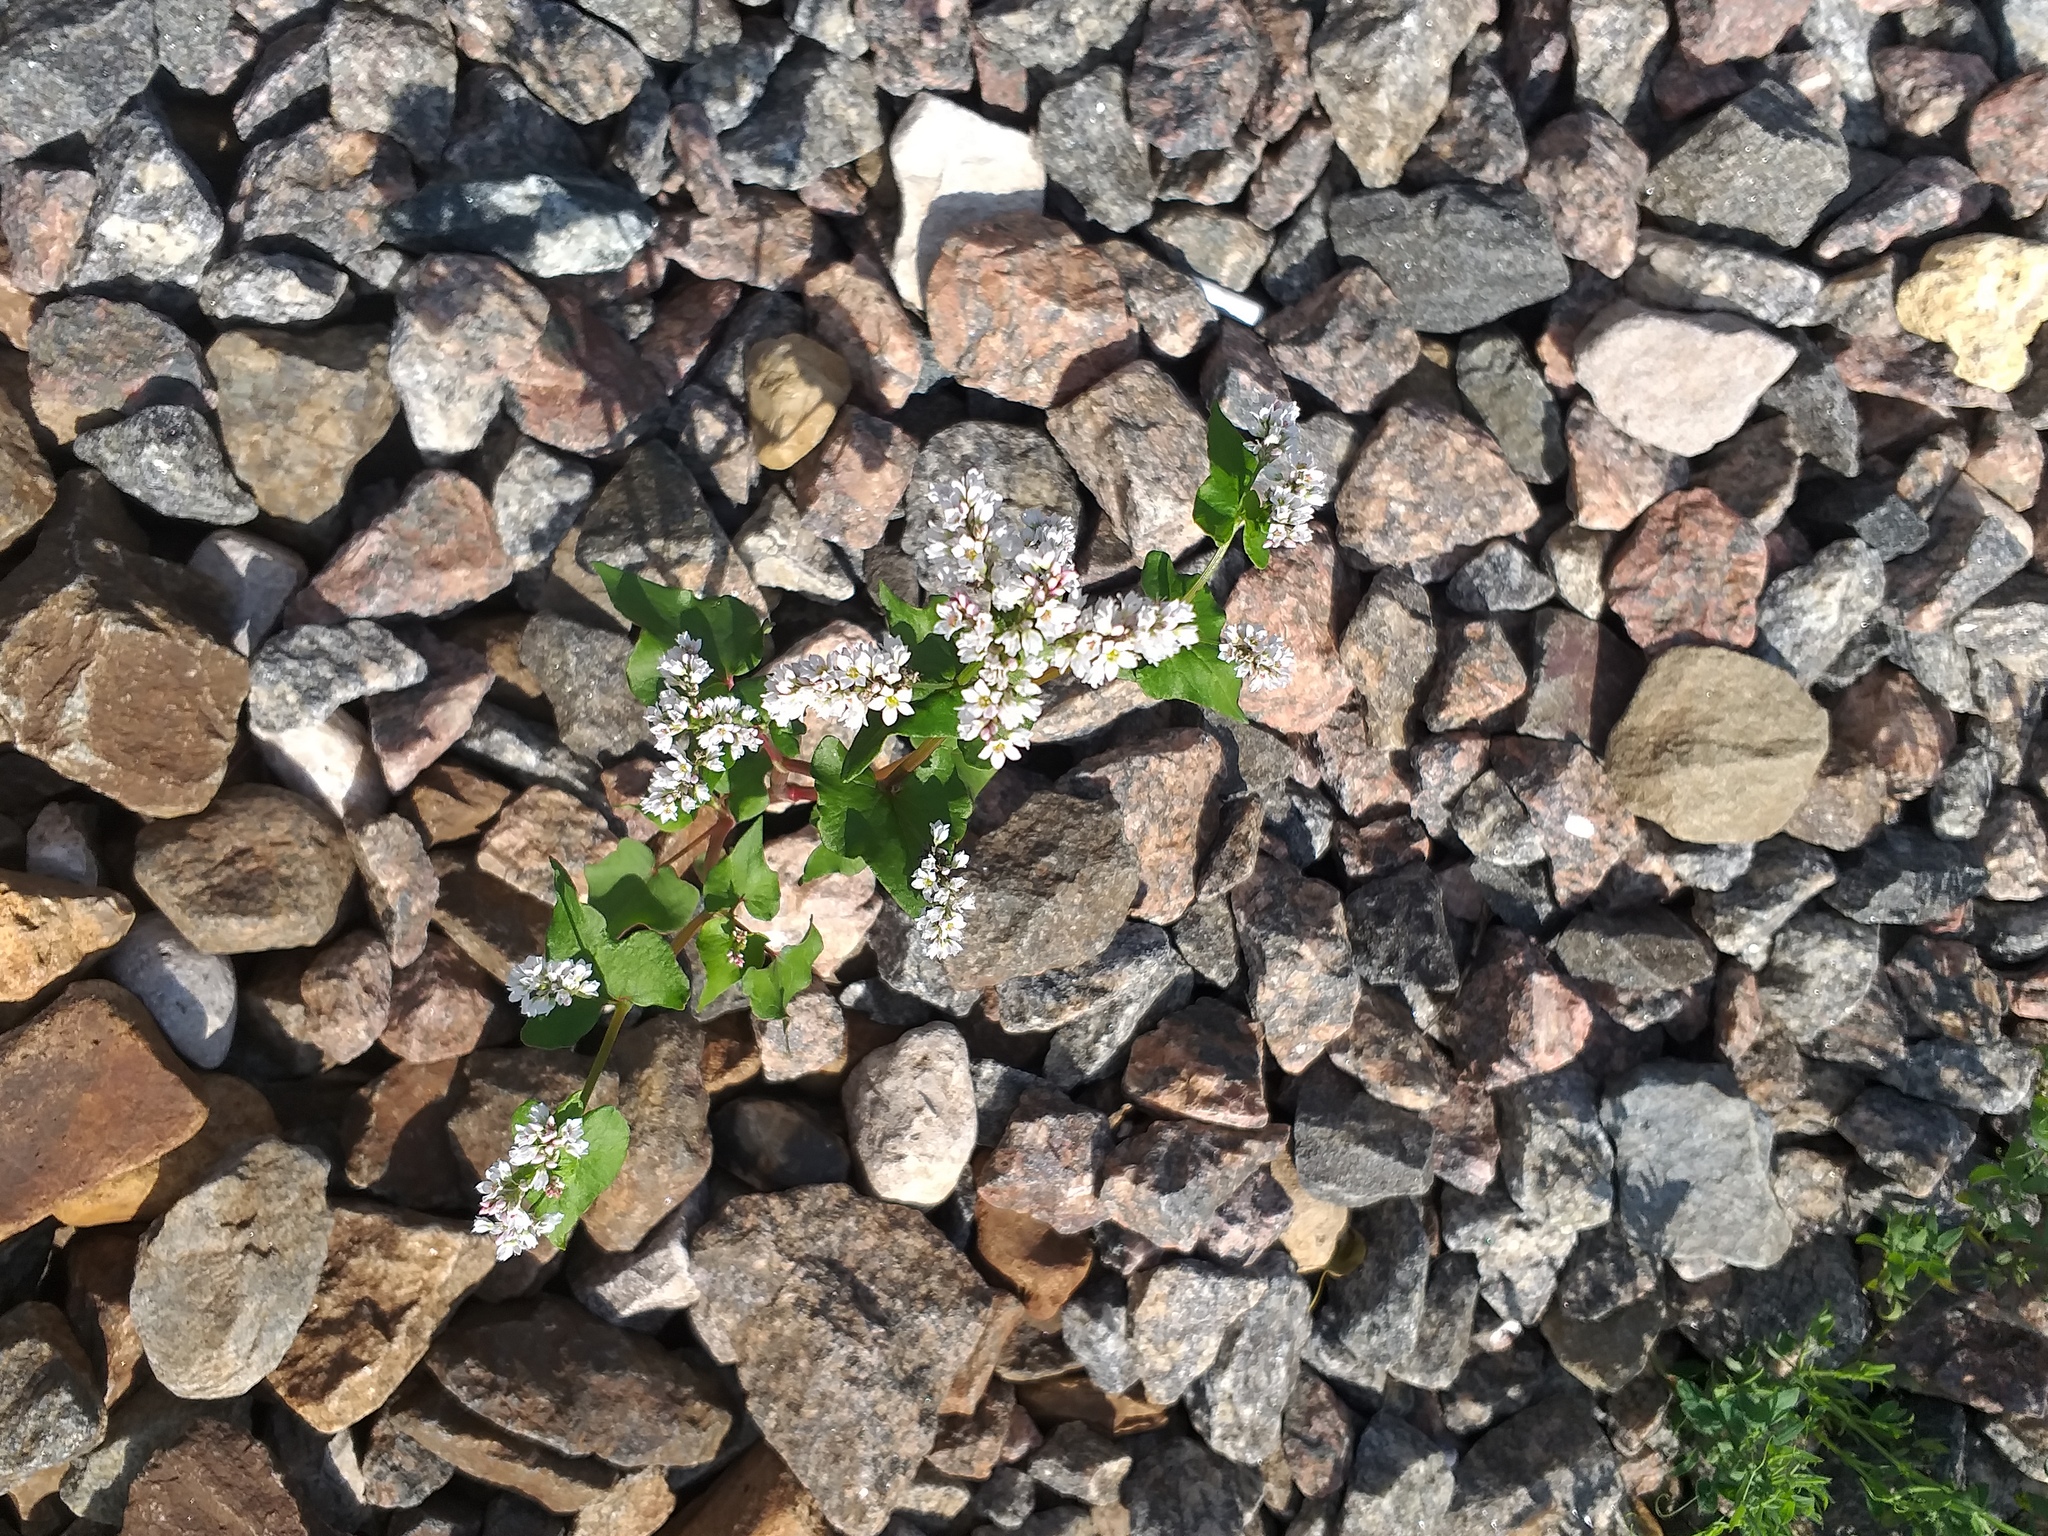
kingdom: Plantae
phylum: Tracheophyta
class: Magnoliopsida
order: Caryophyllales
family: Polygonaceae
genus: Fagopyrum
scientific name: Fagopyrum esculentum
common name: Buckwheat
